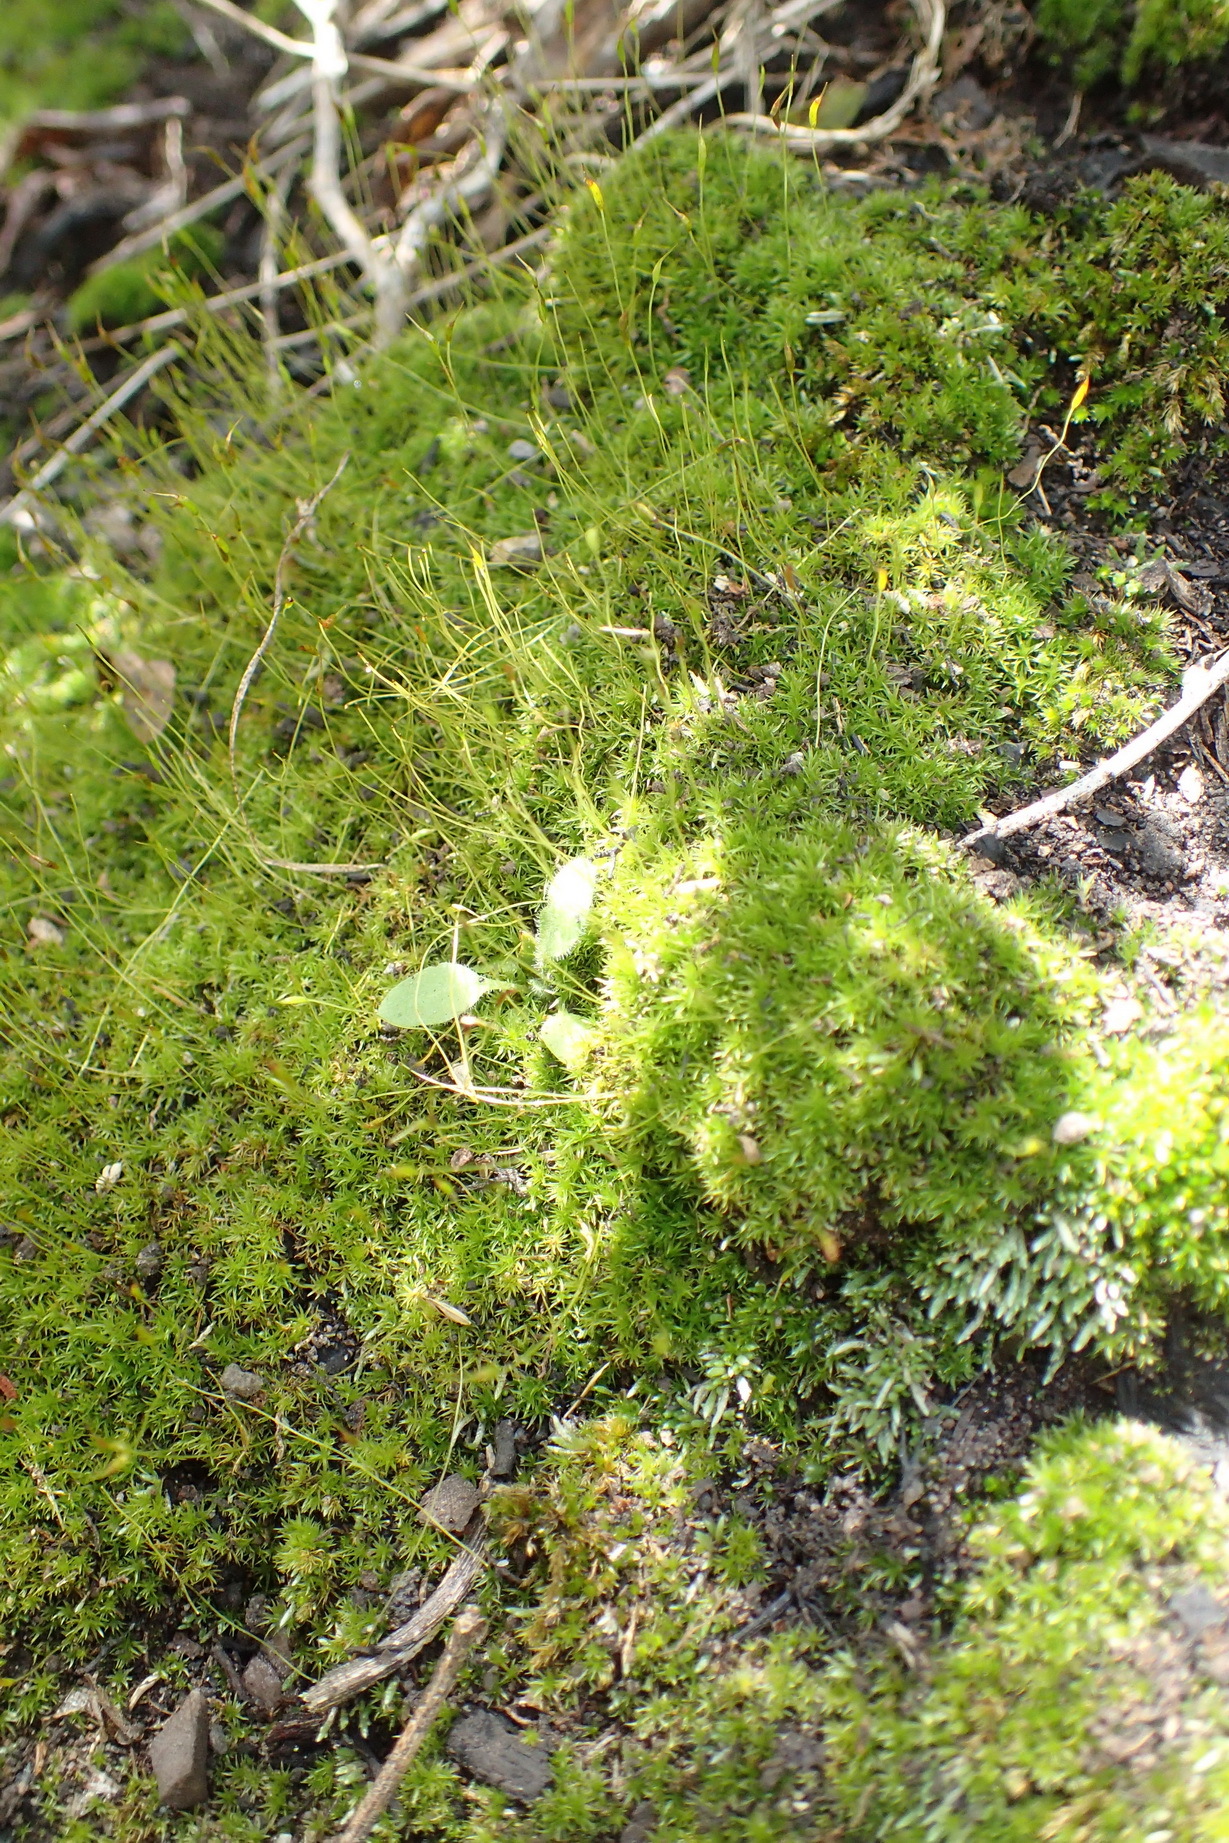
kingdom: Plantae
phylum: Bryophyta
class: Bryopsida
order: Dicranales
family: Ditrichaceae
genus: Ceratodon
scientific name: Ceratodon purpureus
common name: Redshank
